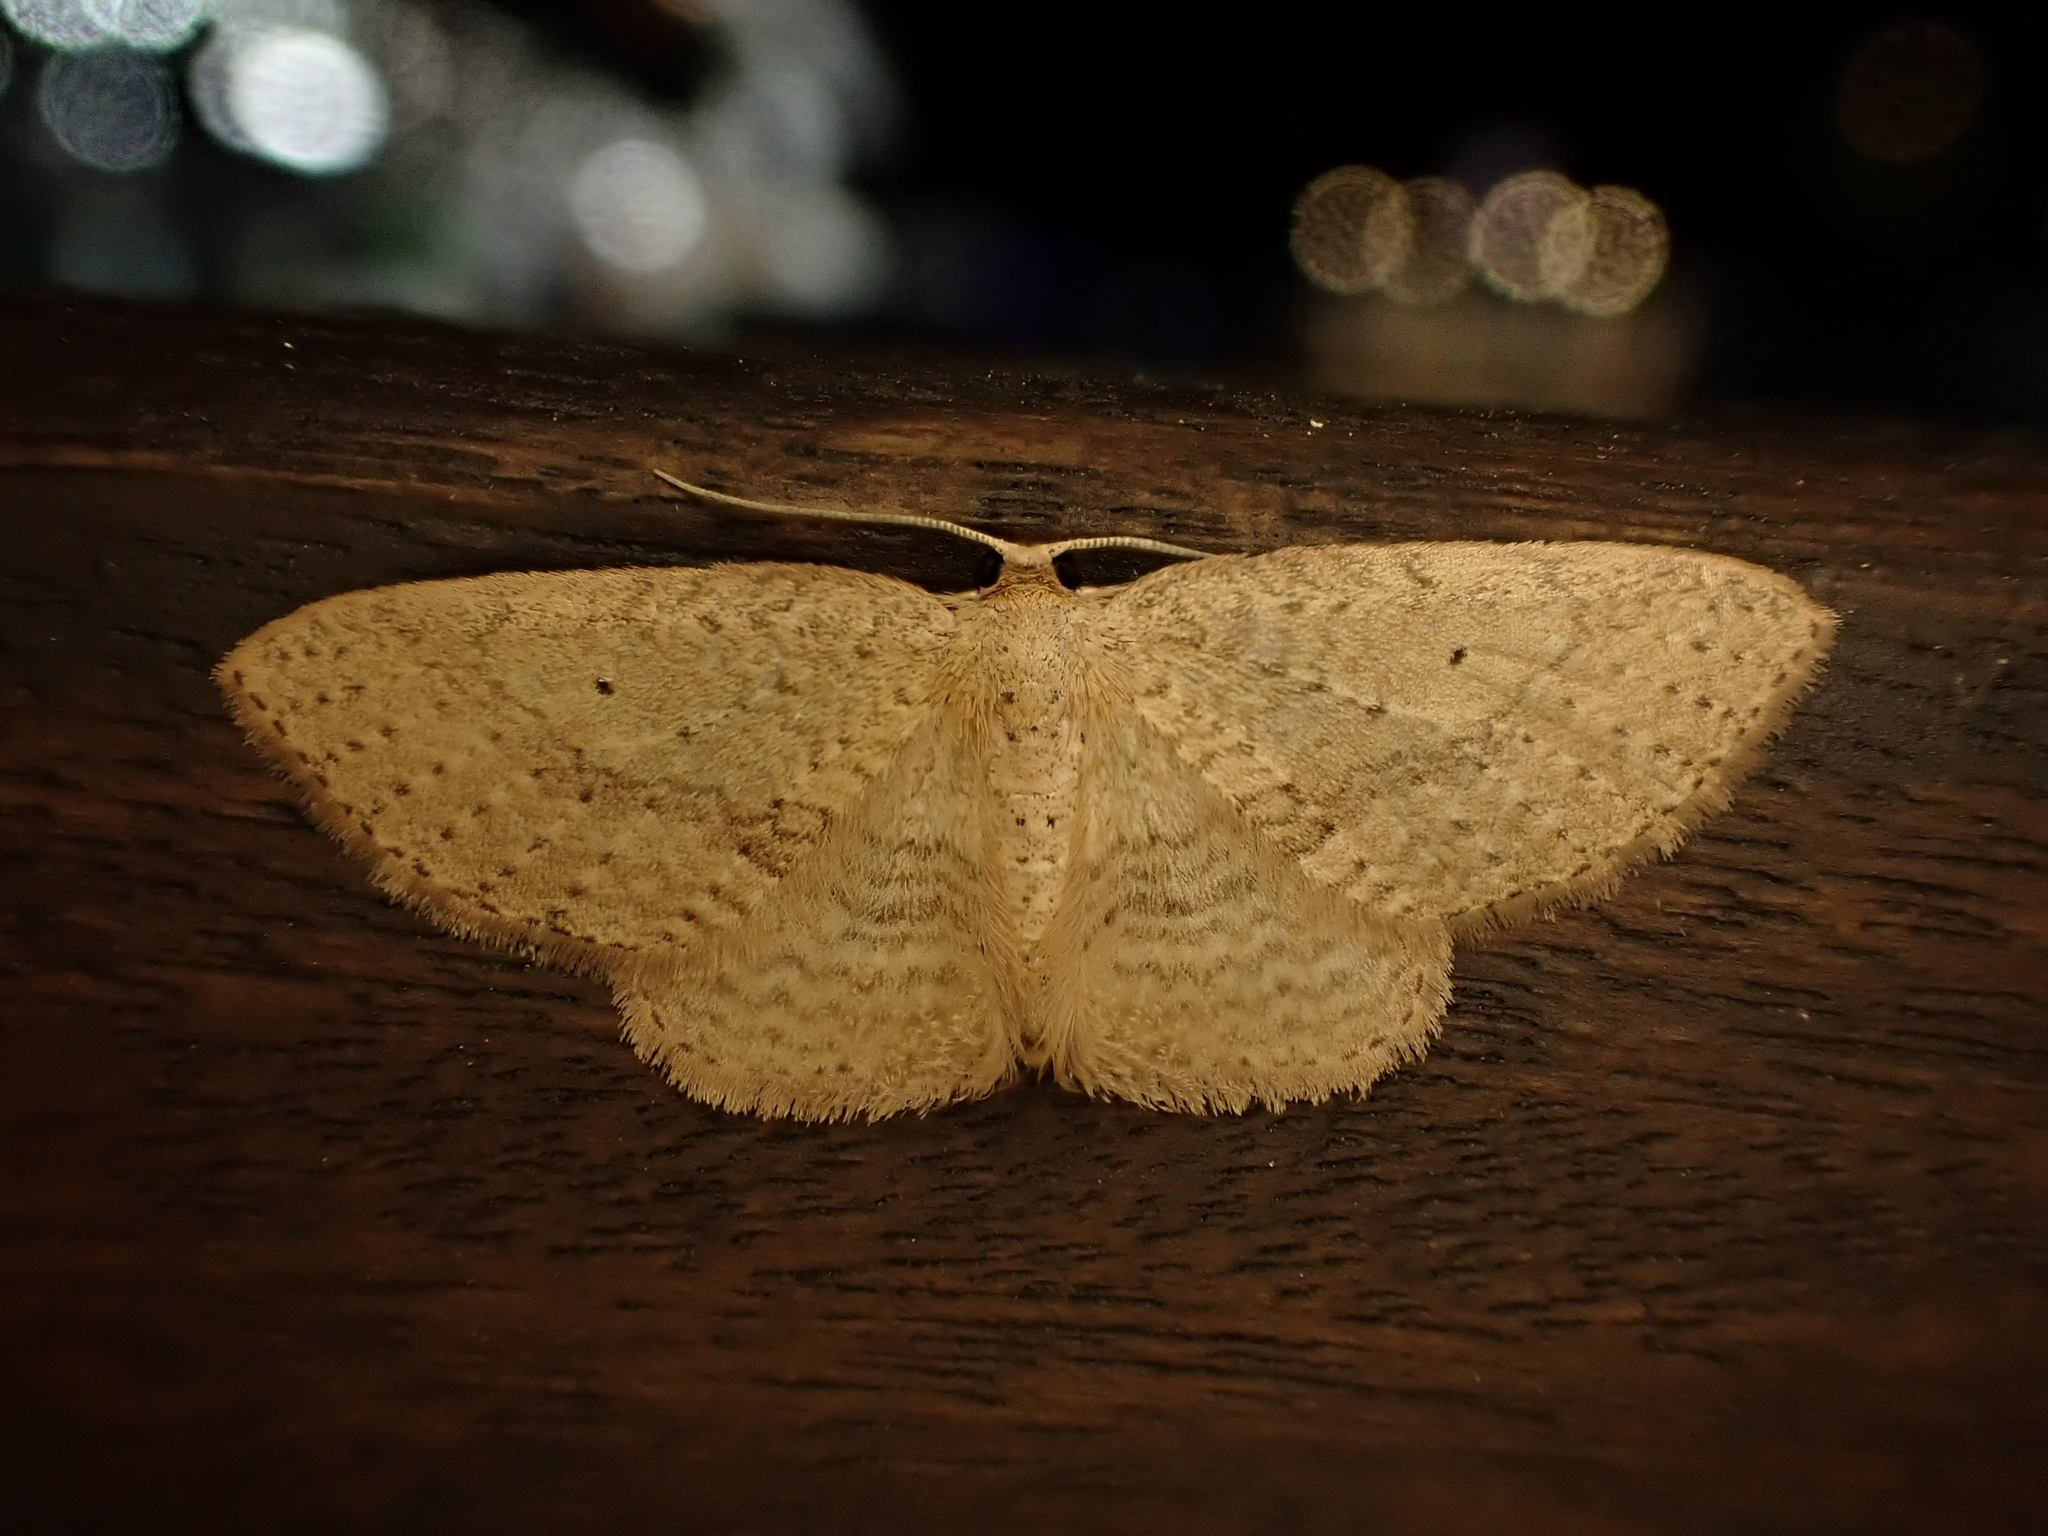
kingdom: Animalia
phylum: Arthropoda
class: Insecta
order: Lepidoptera
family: Geometridae
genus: Poecilasthena
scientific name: Poecilasthena schistaria
